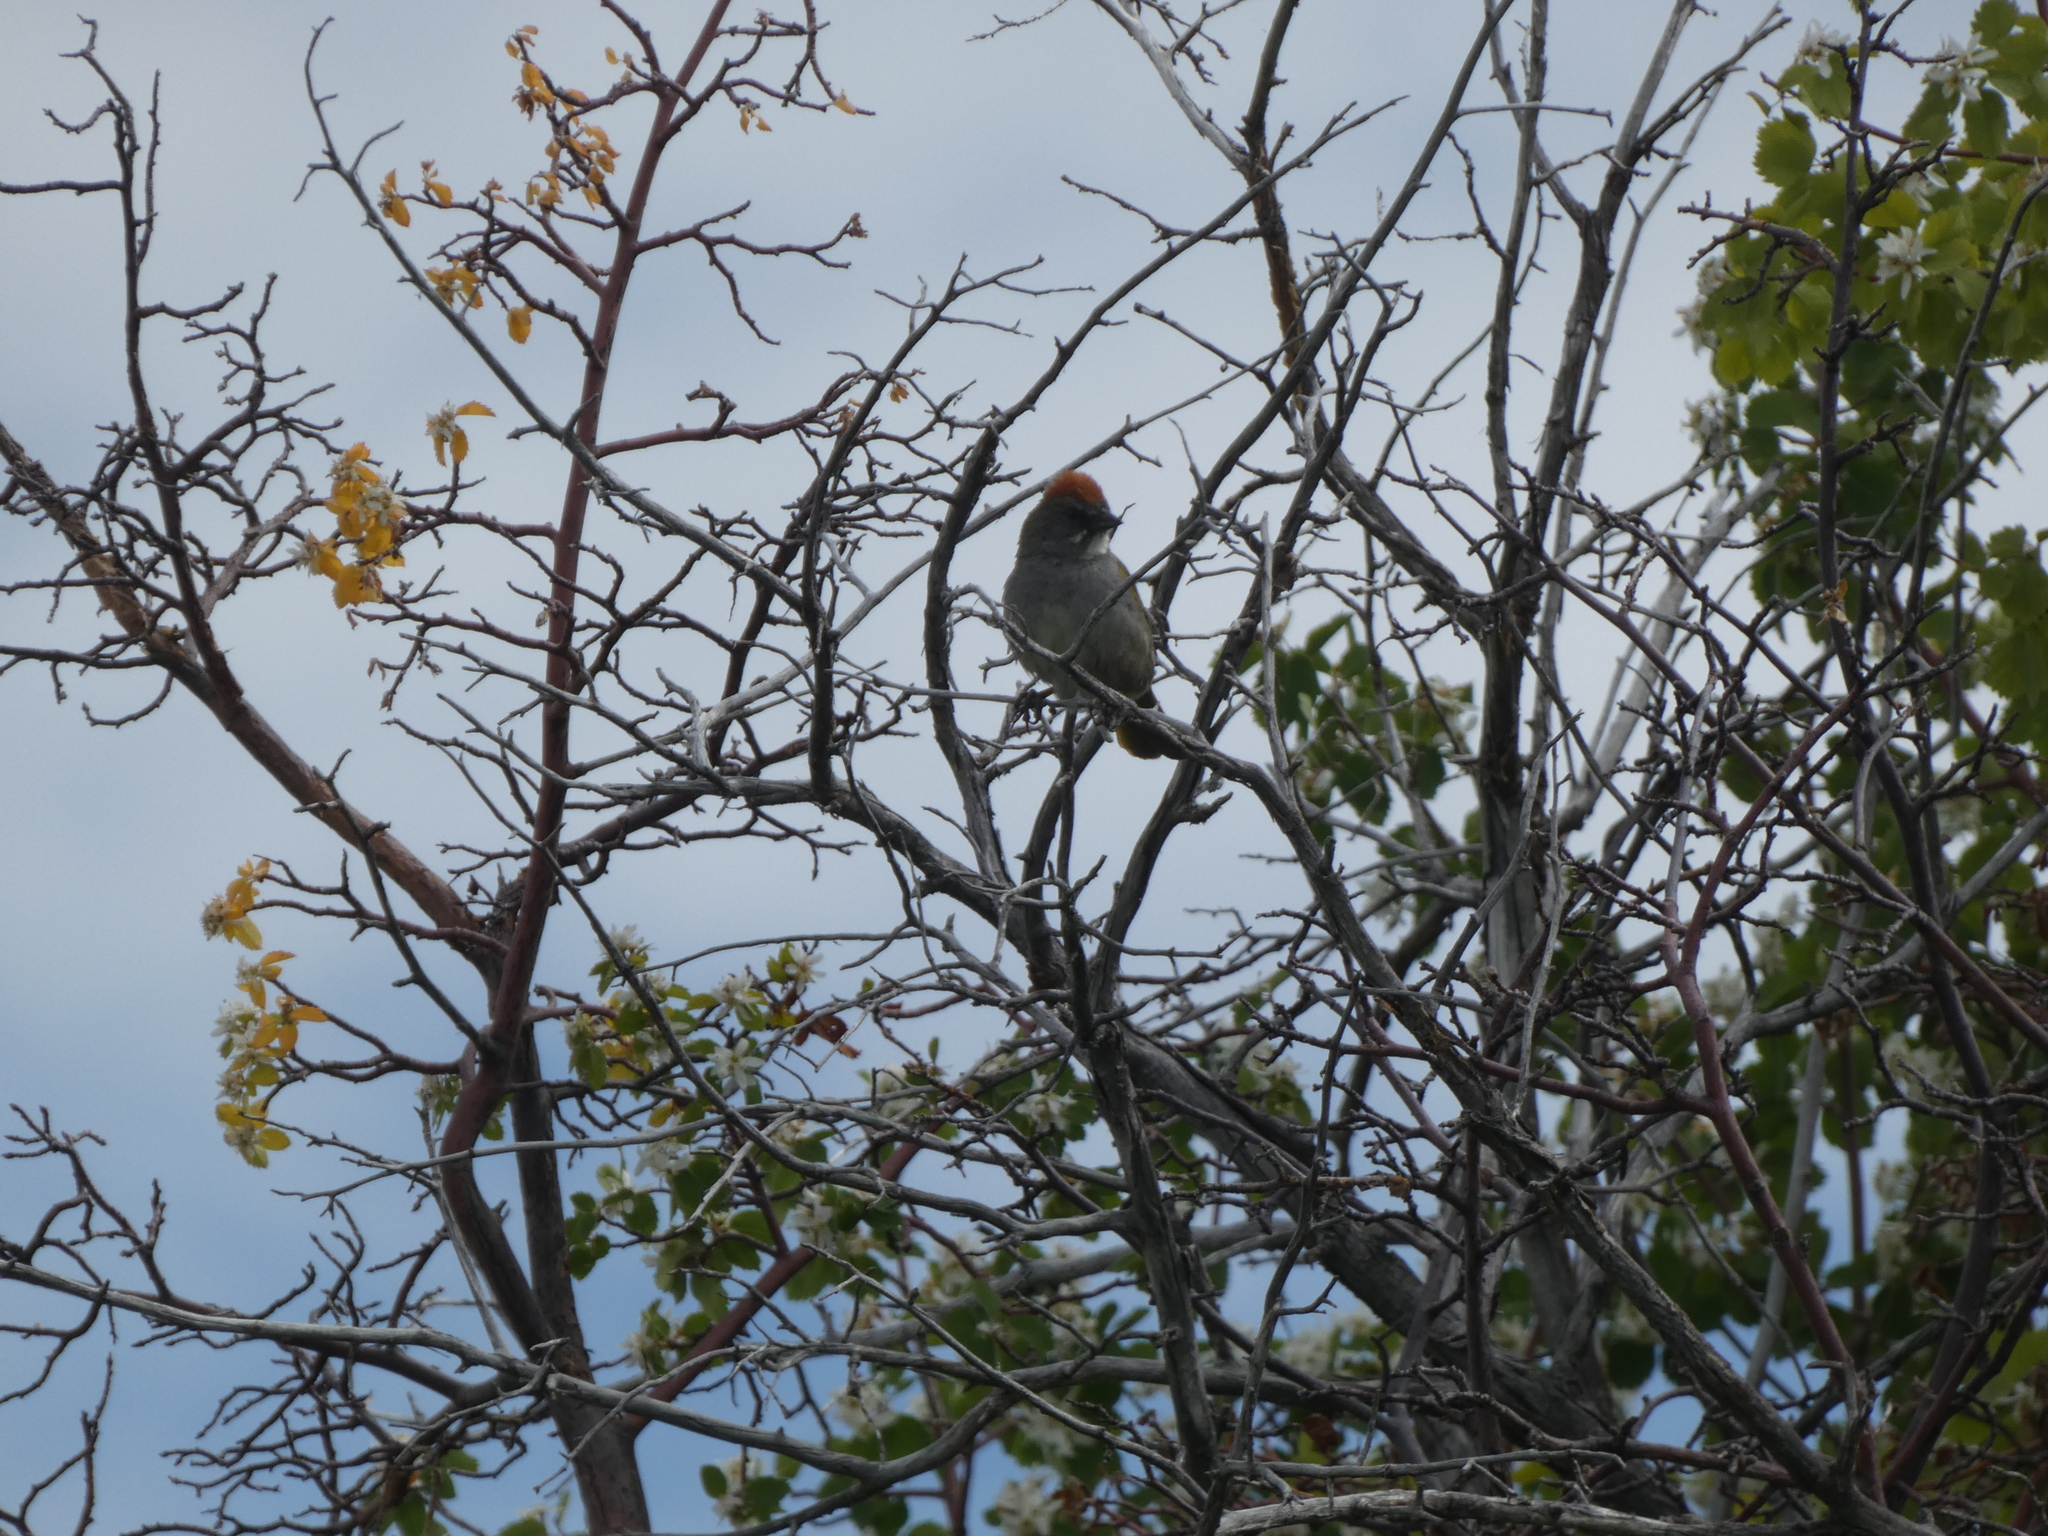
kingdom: Animalia
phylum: Chordata
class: Aves
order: Passeriformes
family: Passerellidae
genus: Pipilo
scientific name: Pipilo chlorurus
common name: Green-tailed towhee
